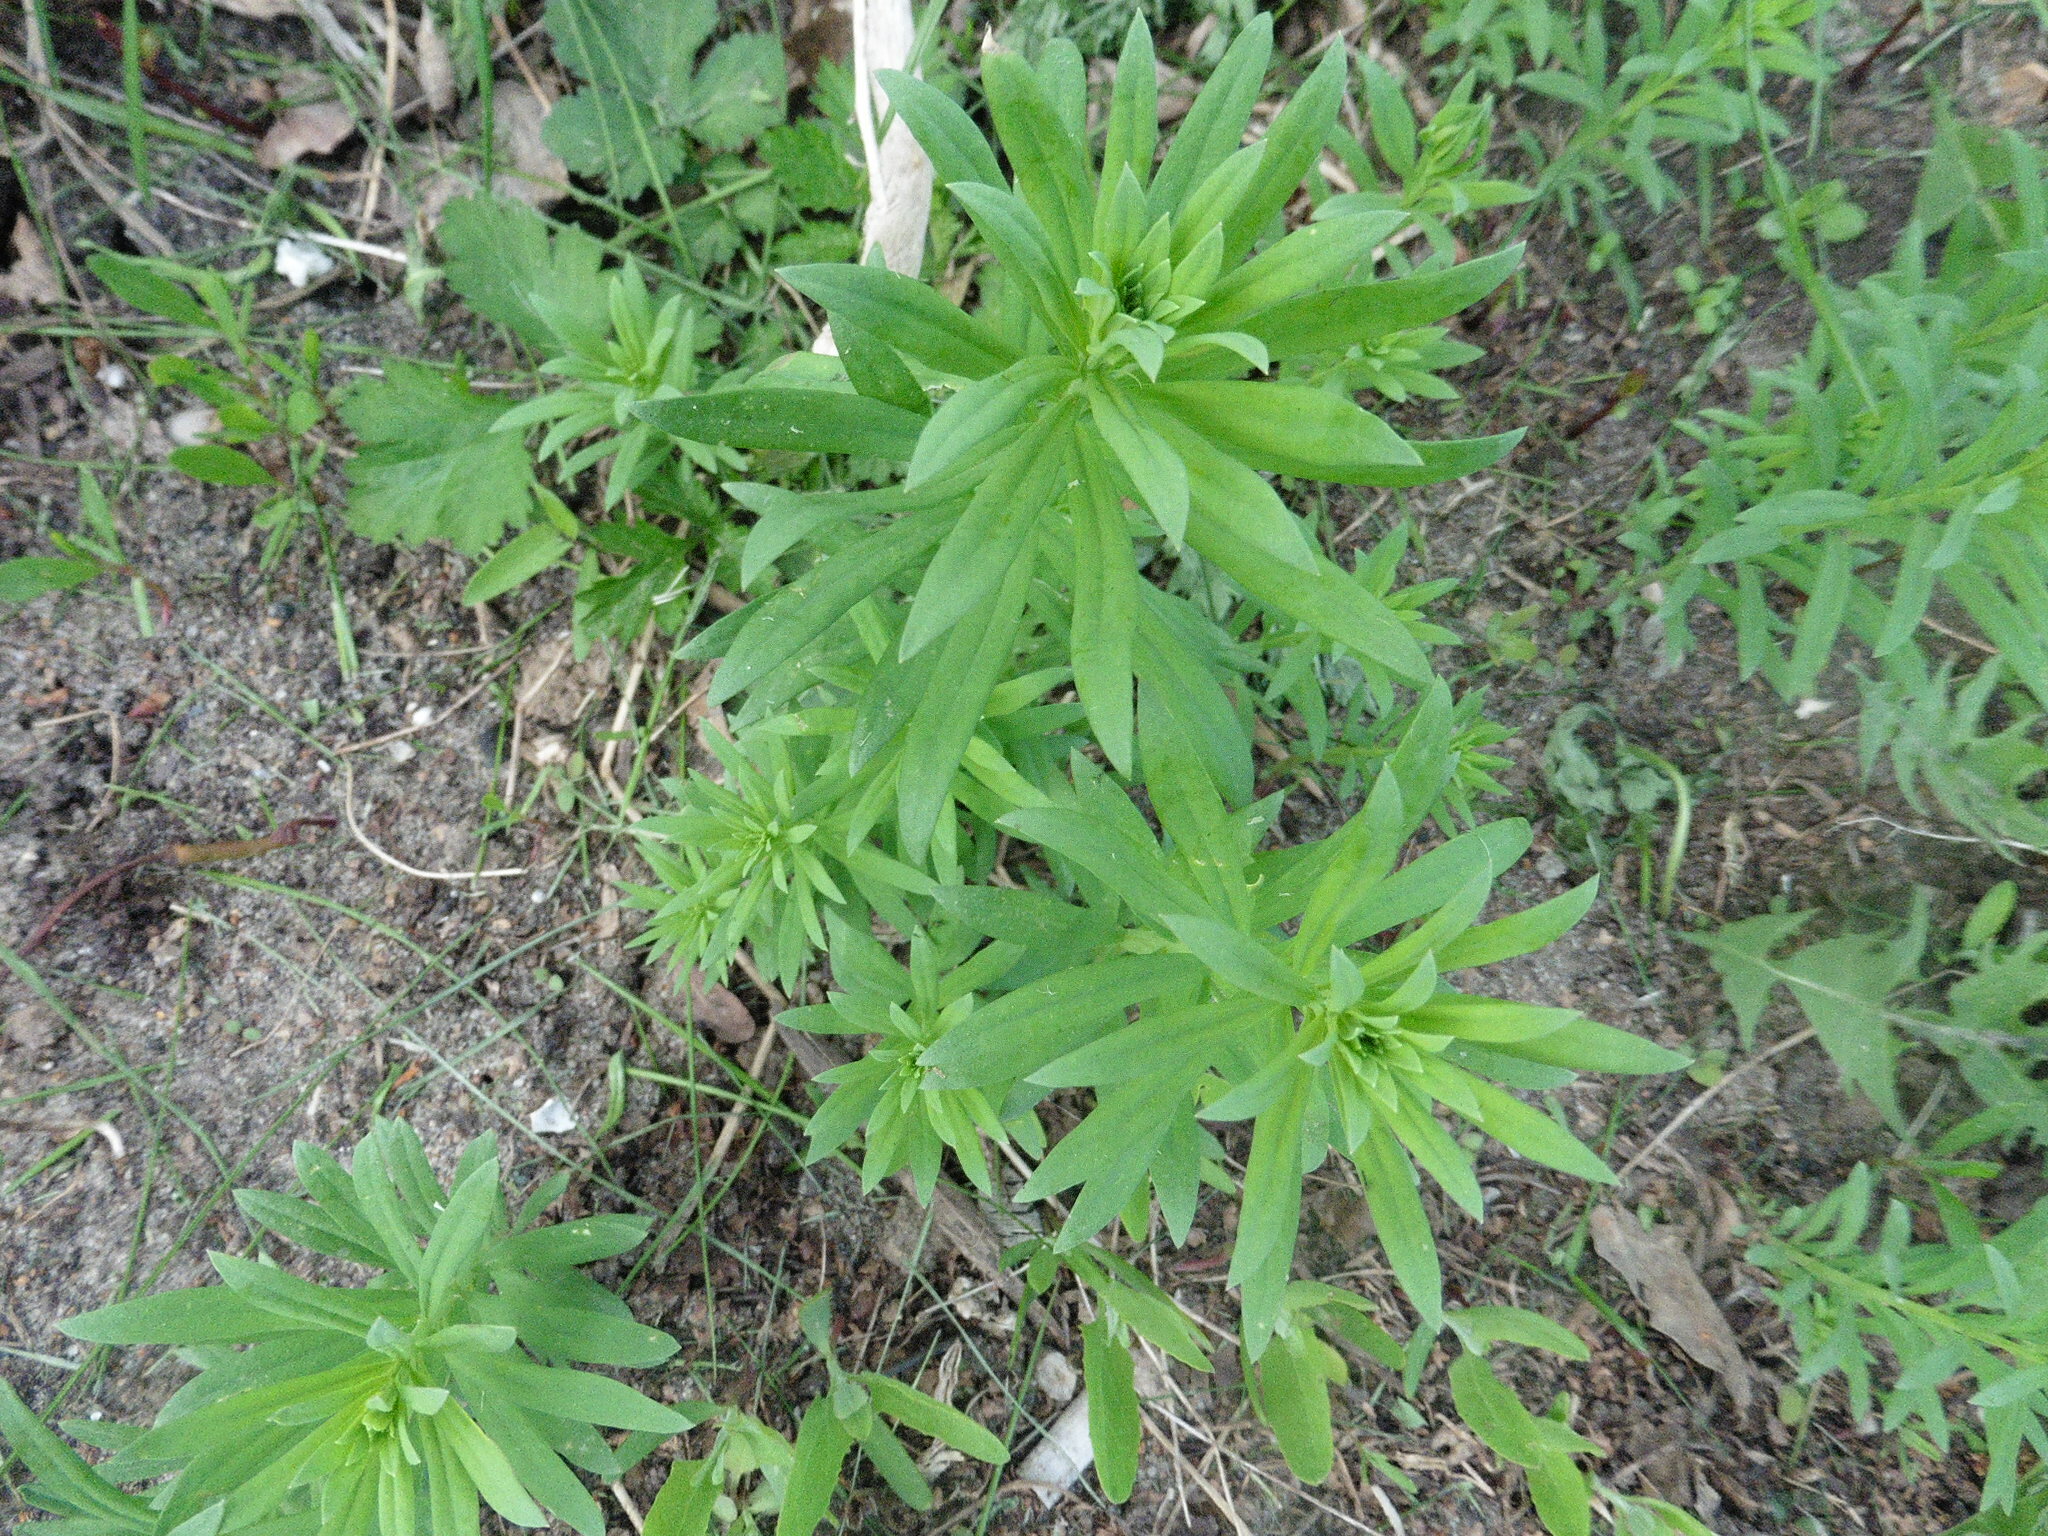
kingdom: Plantae
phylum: Tracheophyta
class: Magnoliopsida
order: Lamiales
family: Plantaginaceae
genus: Linaria
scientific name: Linaria vulgaris
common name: Butter and eggs
